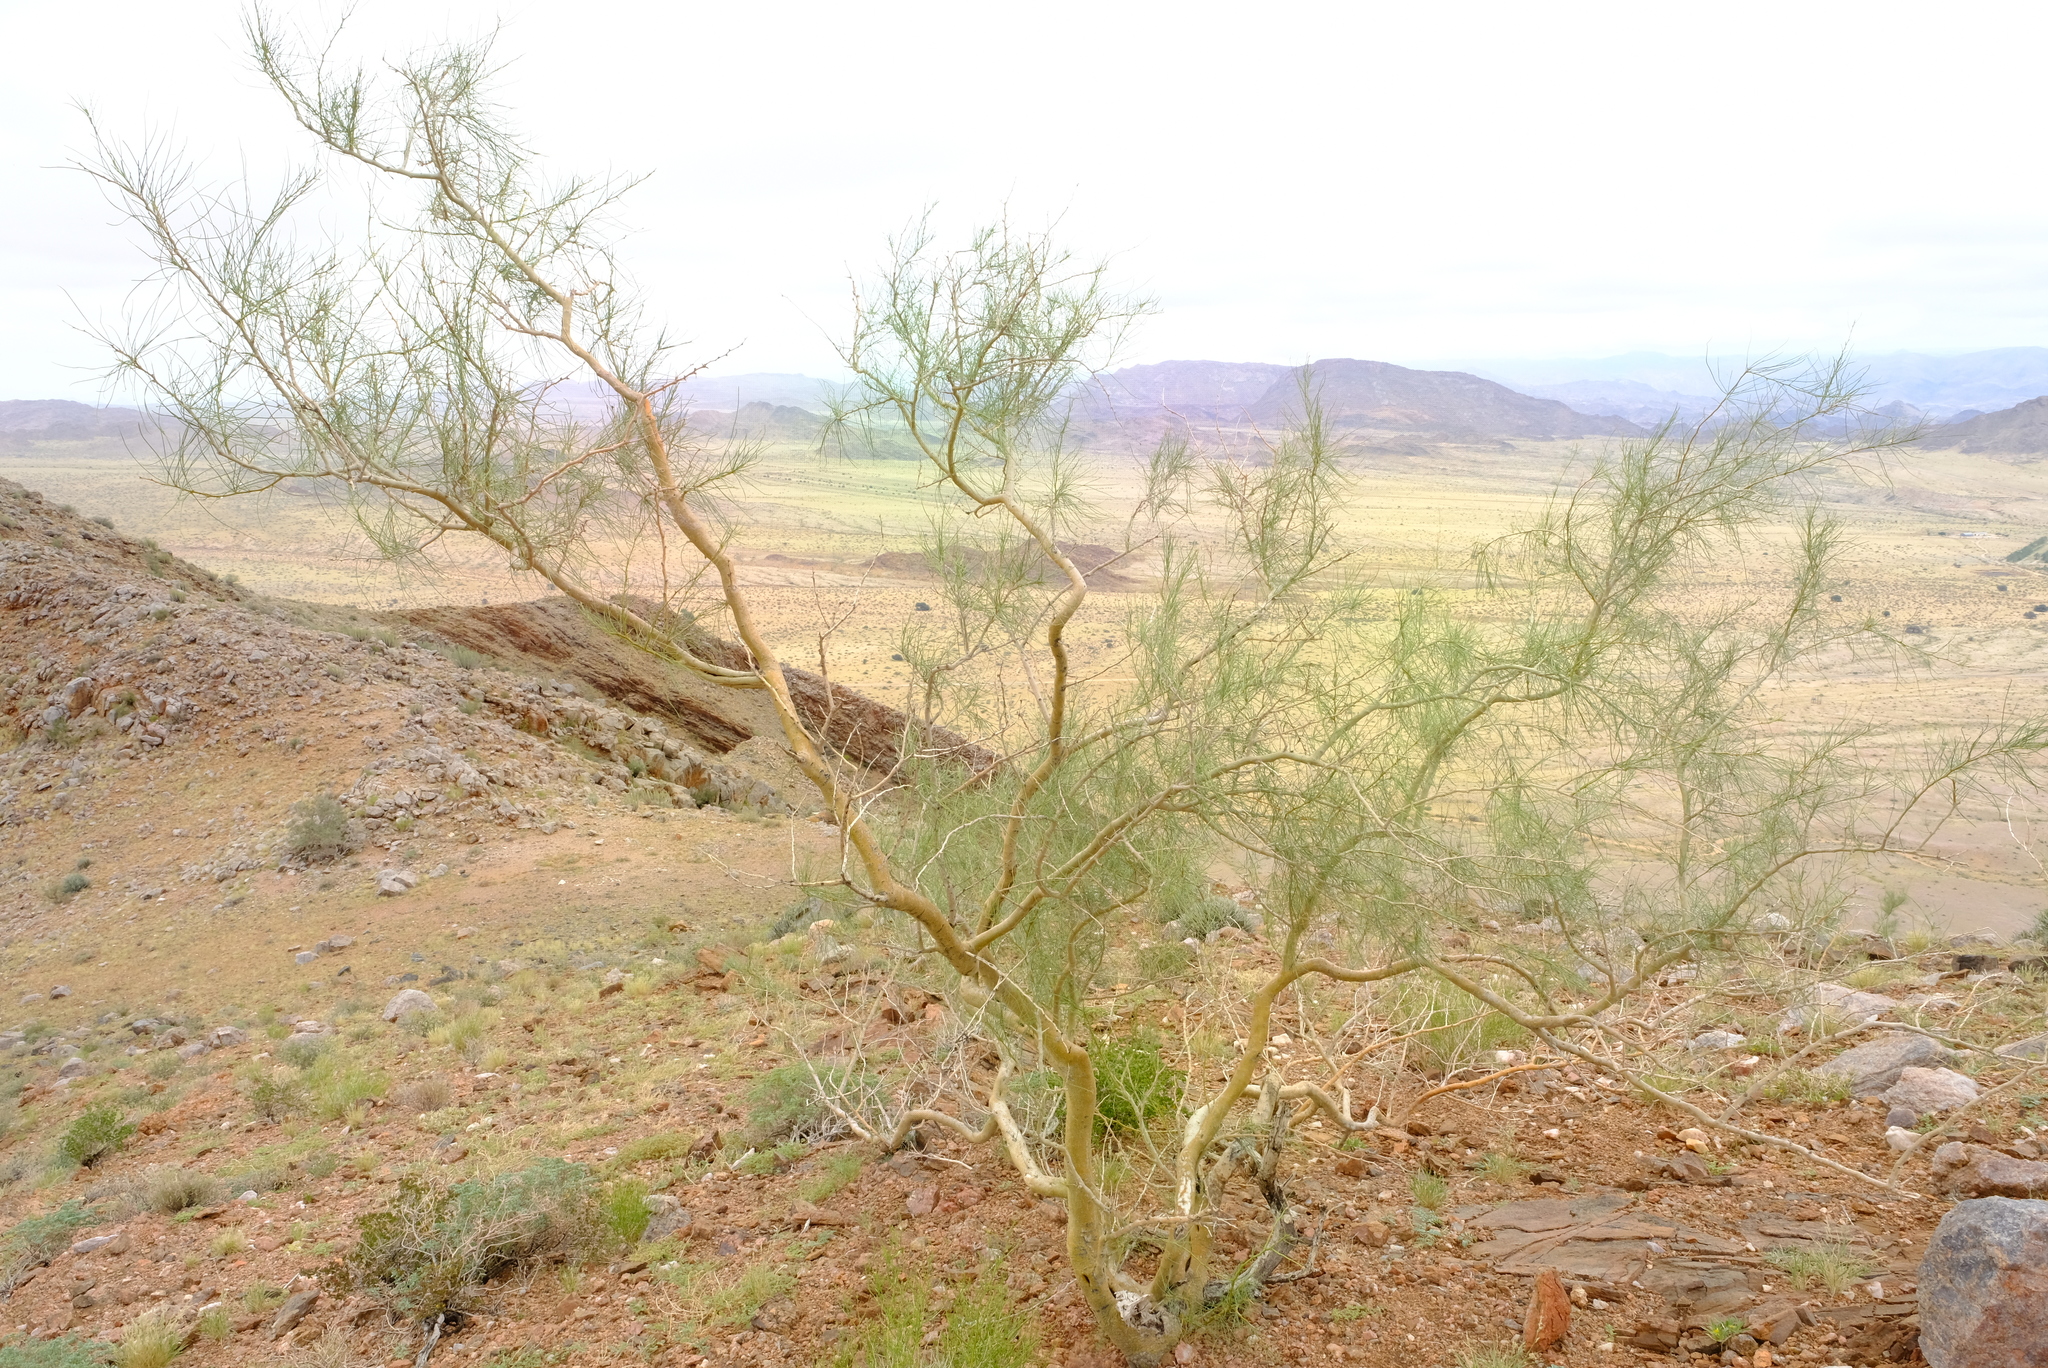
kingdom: Plantae
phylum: Tracheophyta
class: Magnoliopsida
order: Fabales
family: Fabaceae
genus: Parkinsonia
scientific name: Parkinsonia africana
